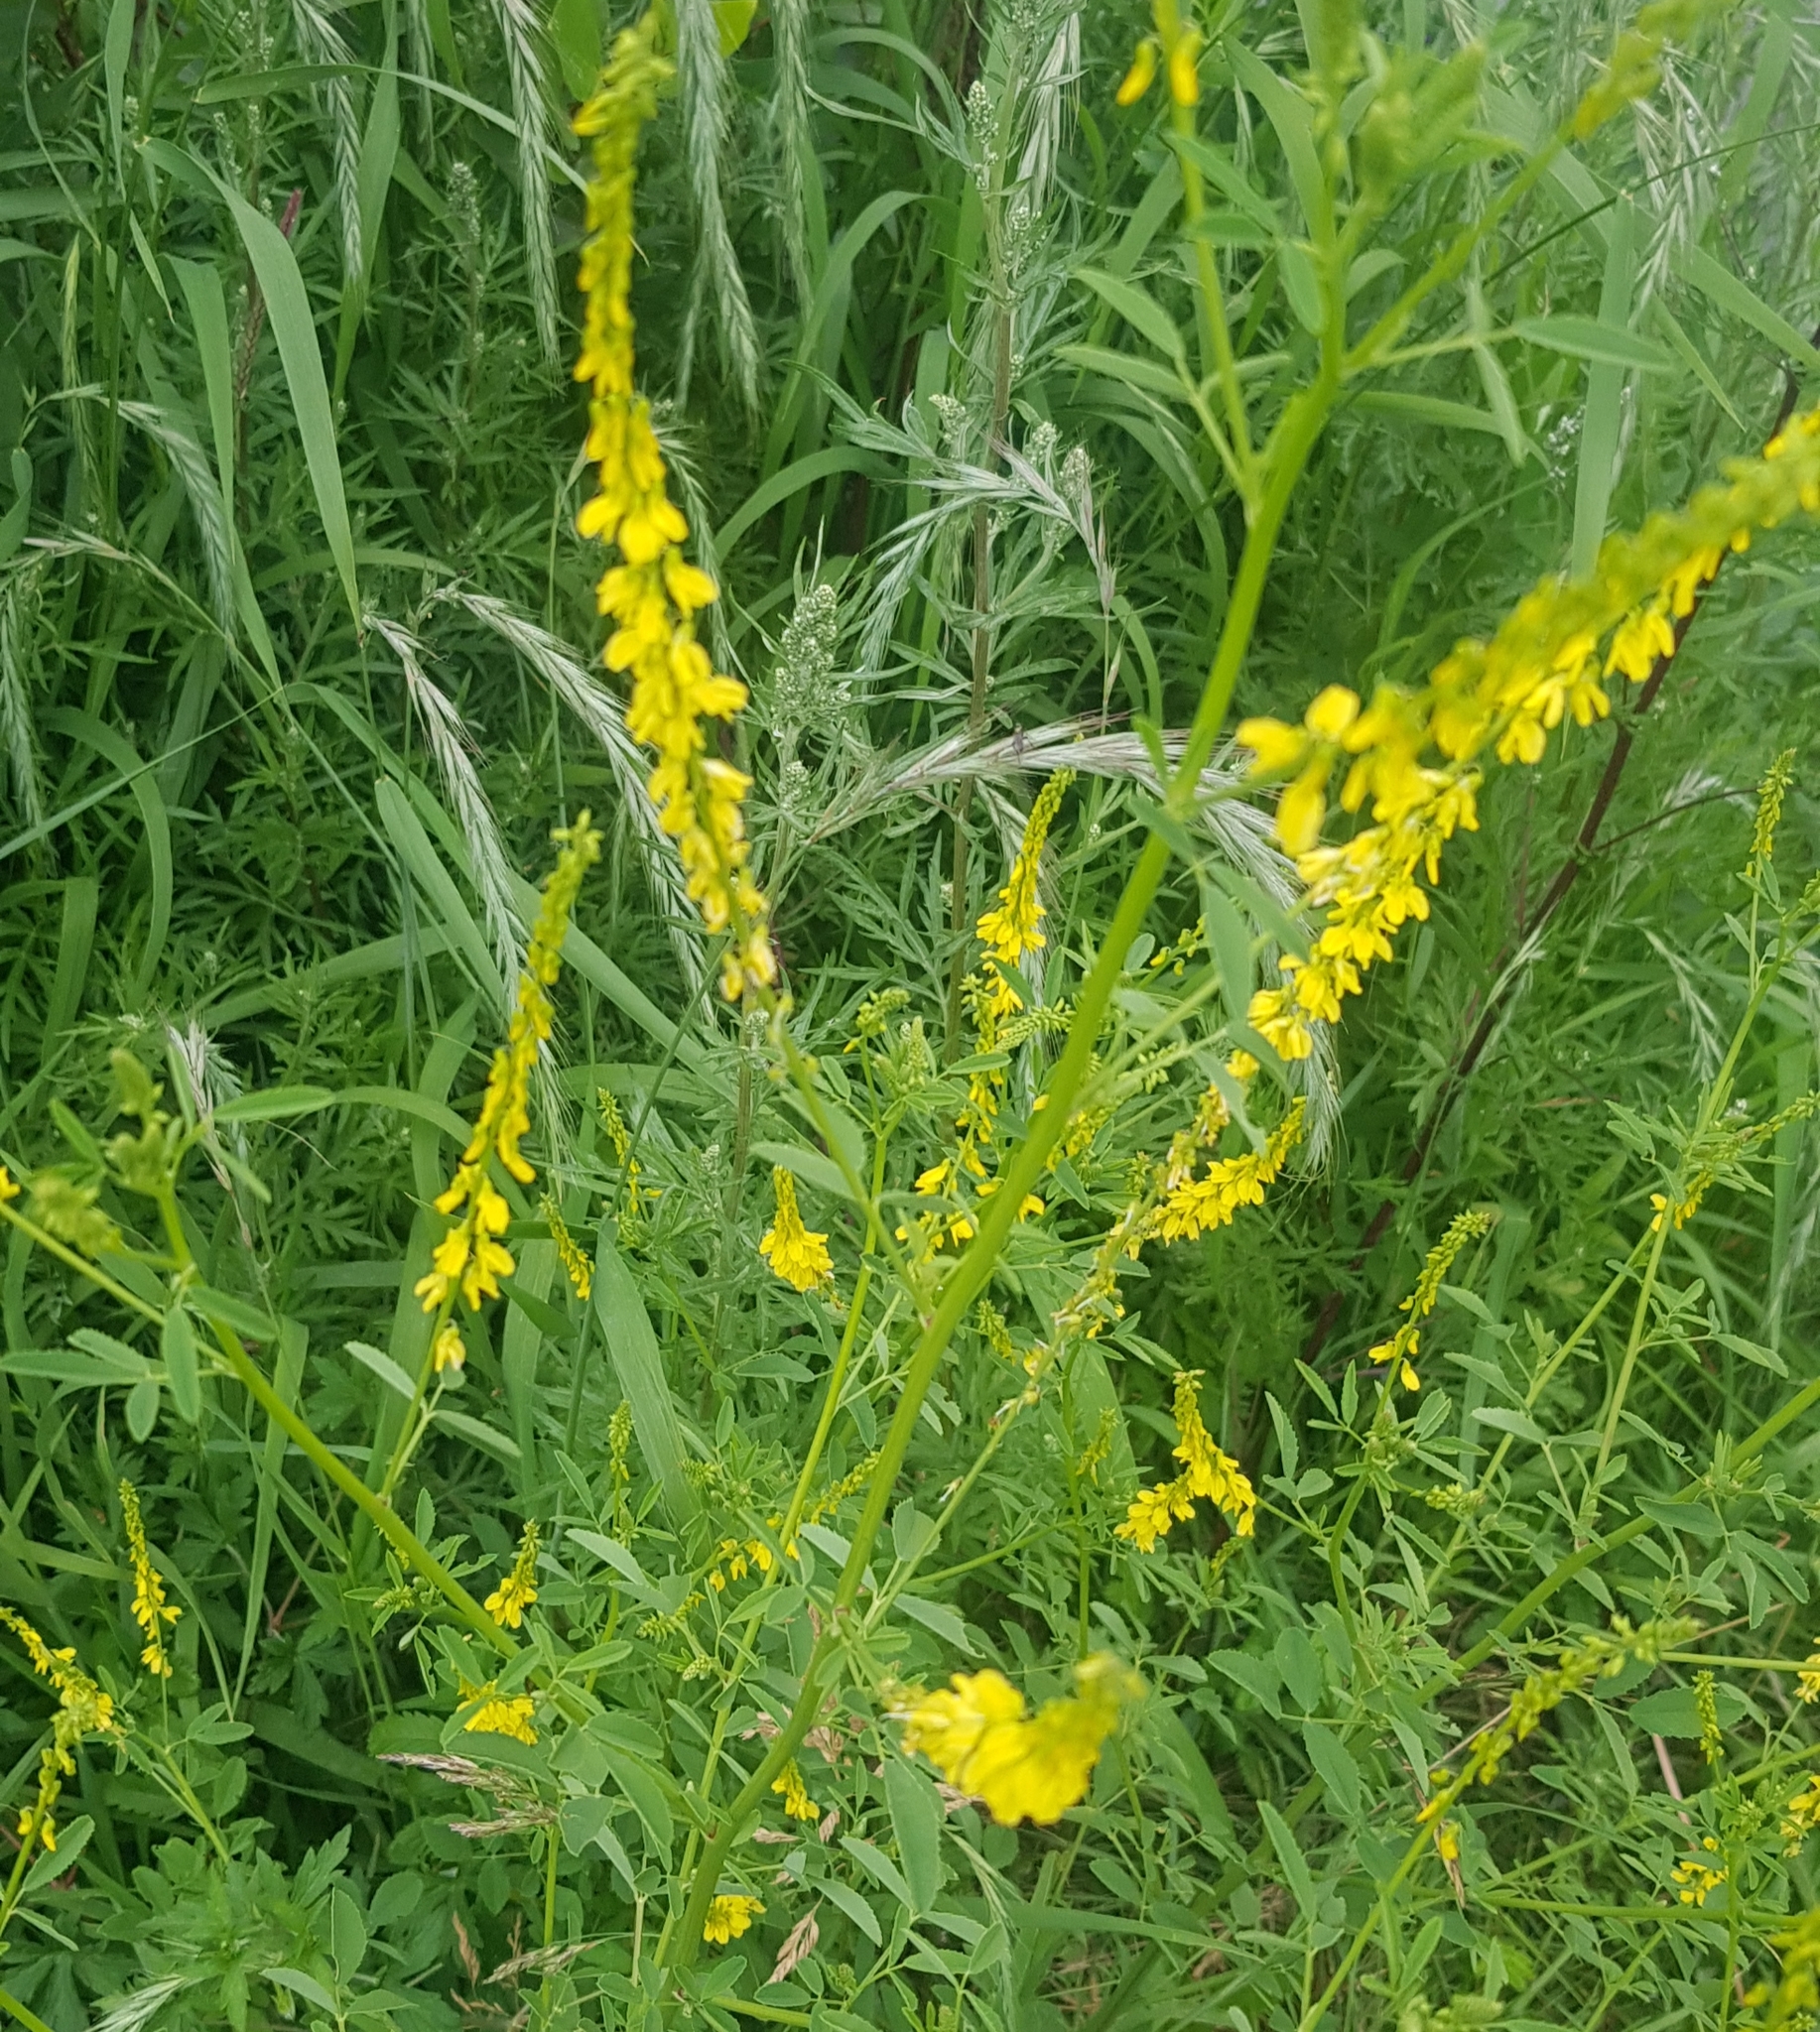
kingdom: Plantae
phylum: Tracheophyta
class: Magnoliopsida
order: Fabales
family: Fabaceae
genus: Melilotus
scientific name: Melilotus officinalis
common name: Sweetclover
